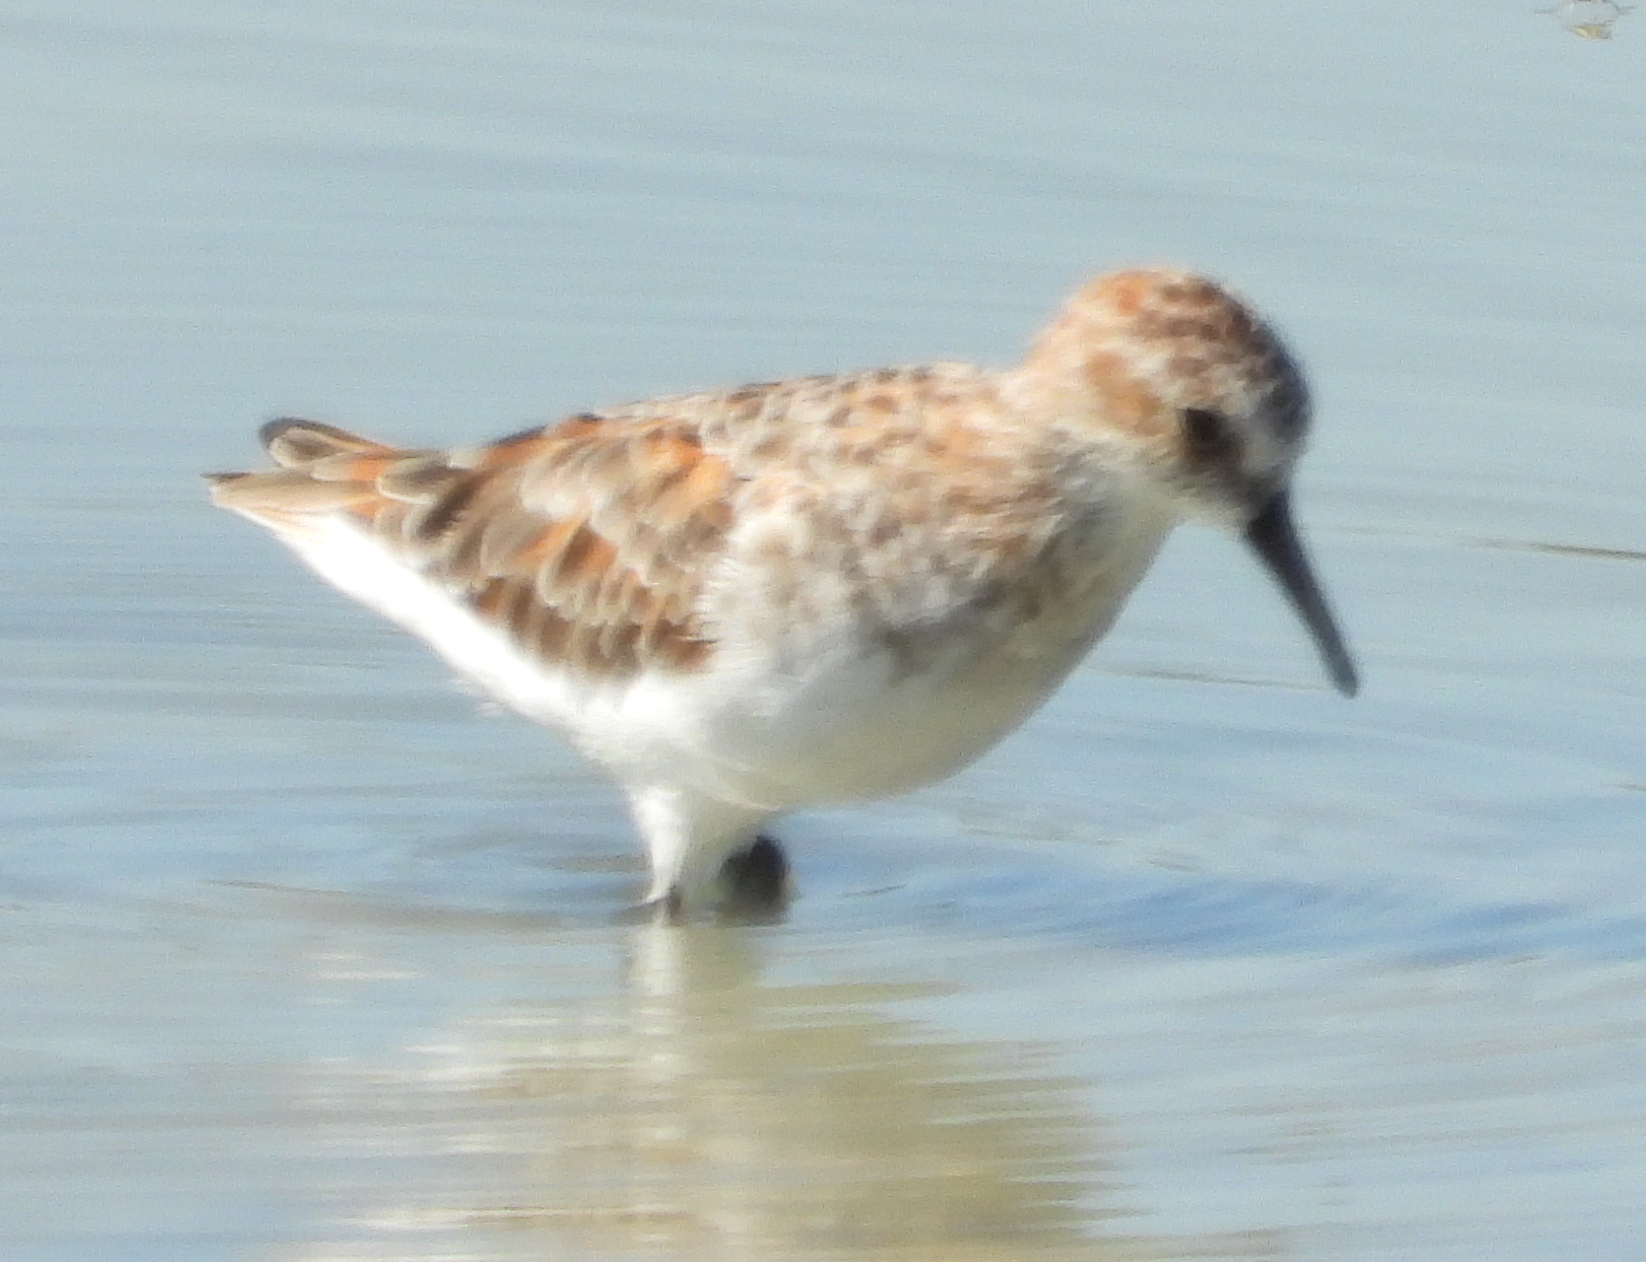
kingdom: Animalia
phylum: Chordata
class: Aves
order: Charadriiformes
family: Scolopacidae
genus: Calidris
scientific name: Calidris minuta
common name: Little stint
